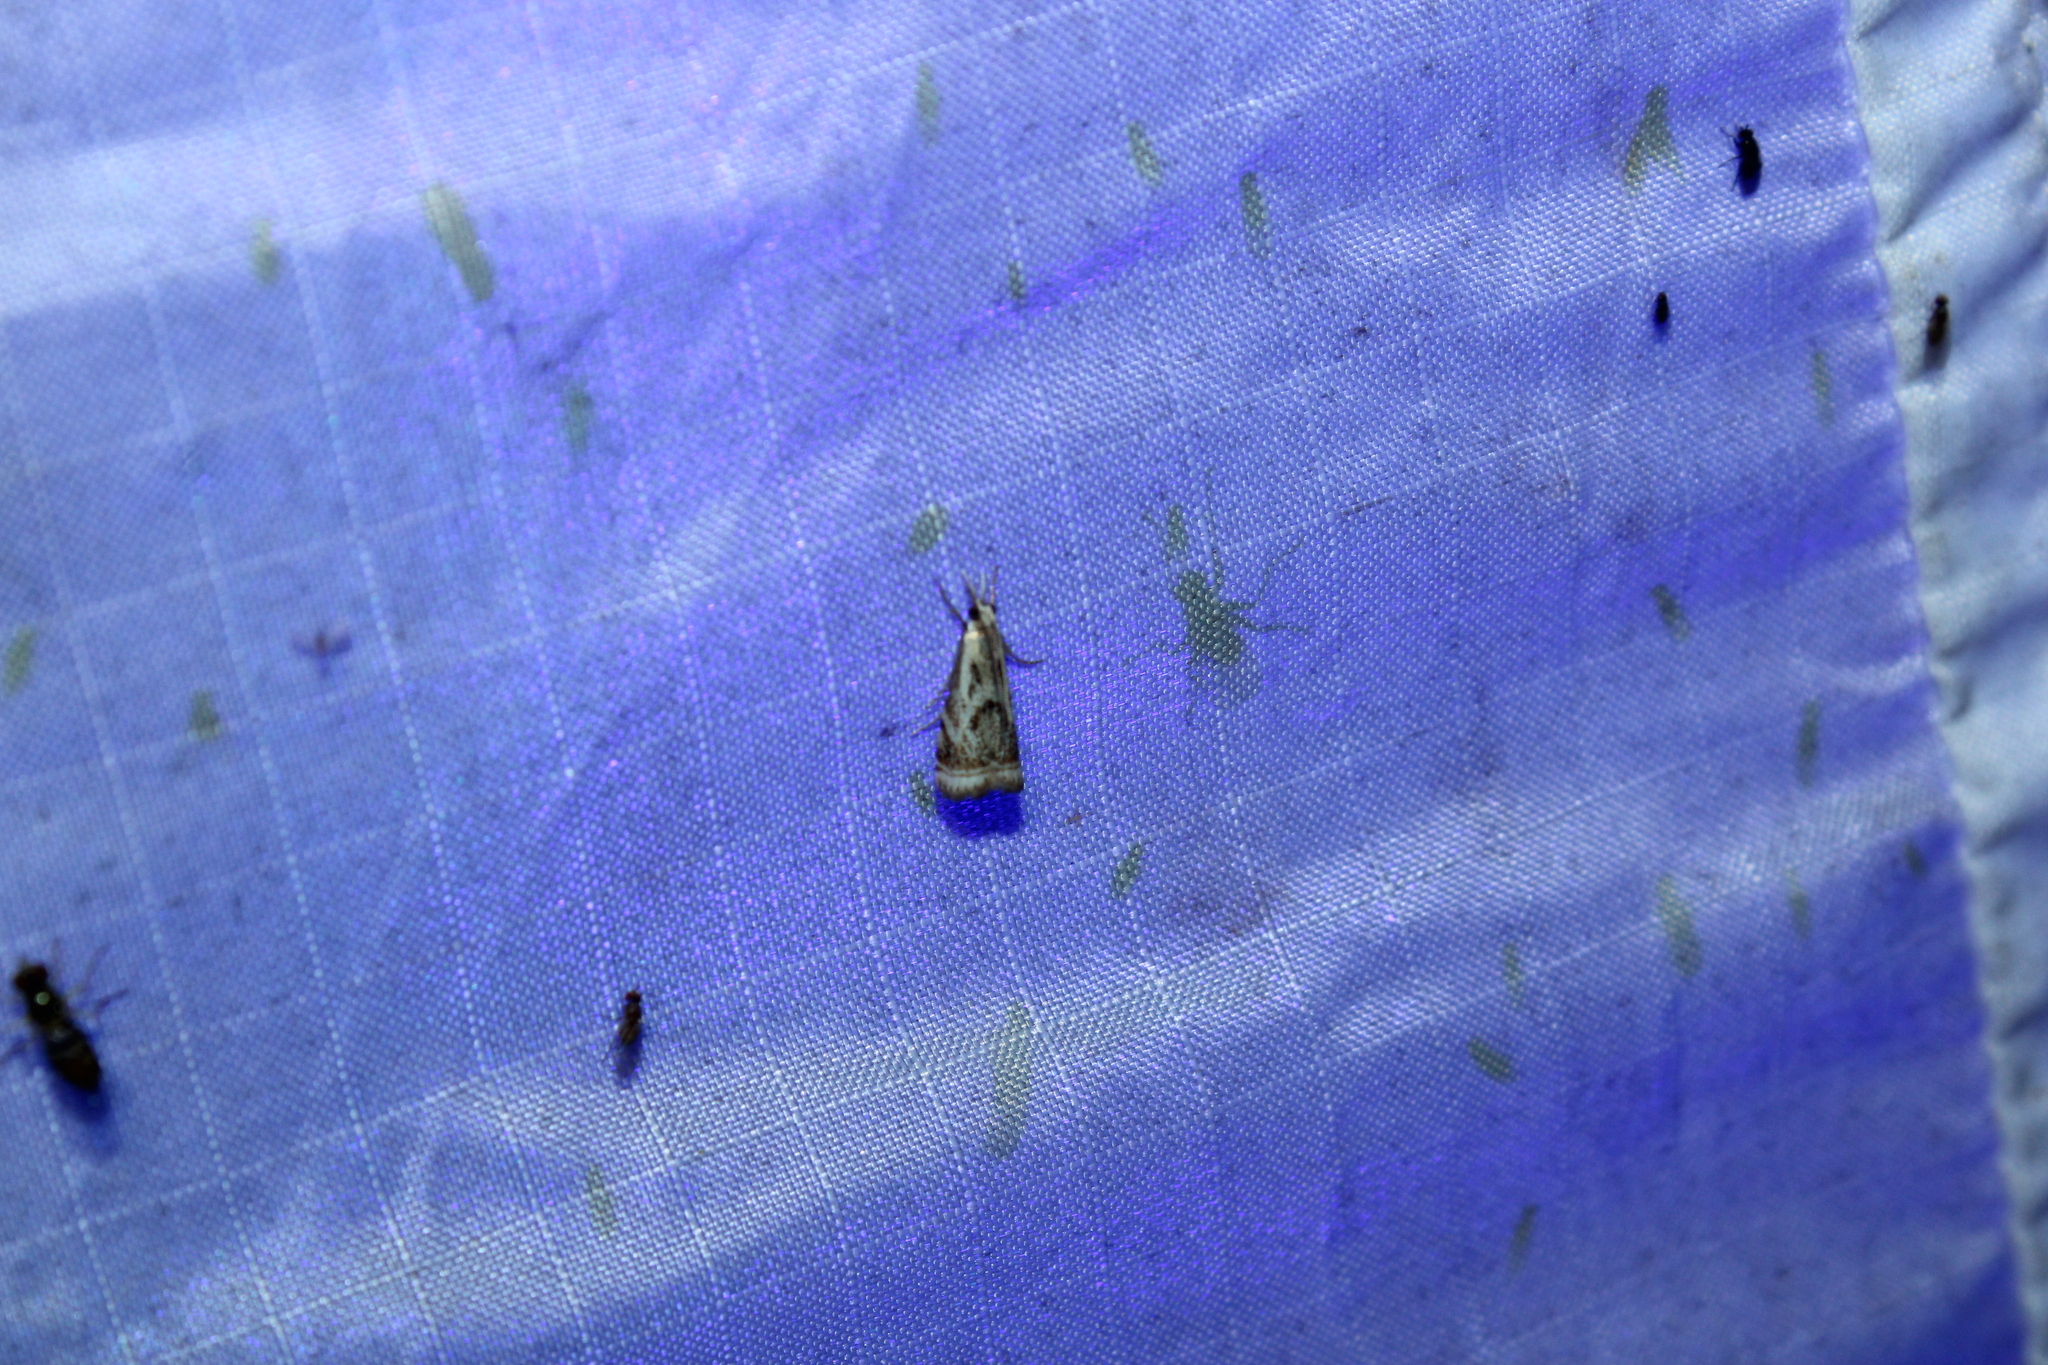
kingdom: Animalia
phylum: Arthropoda
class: Insecta
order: Lepidoptera
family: Crambidae
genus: Microcrambus
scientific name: Microcrambus elegans
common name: Elegant grass-veneer
